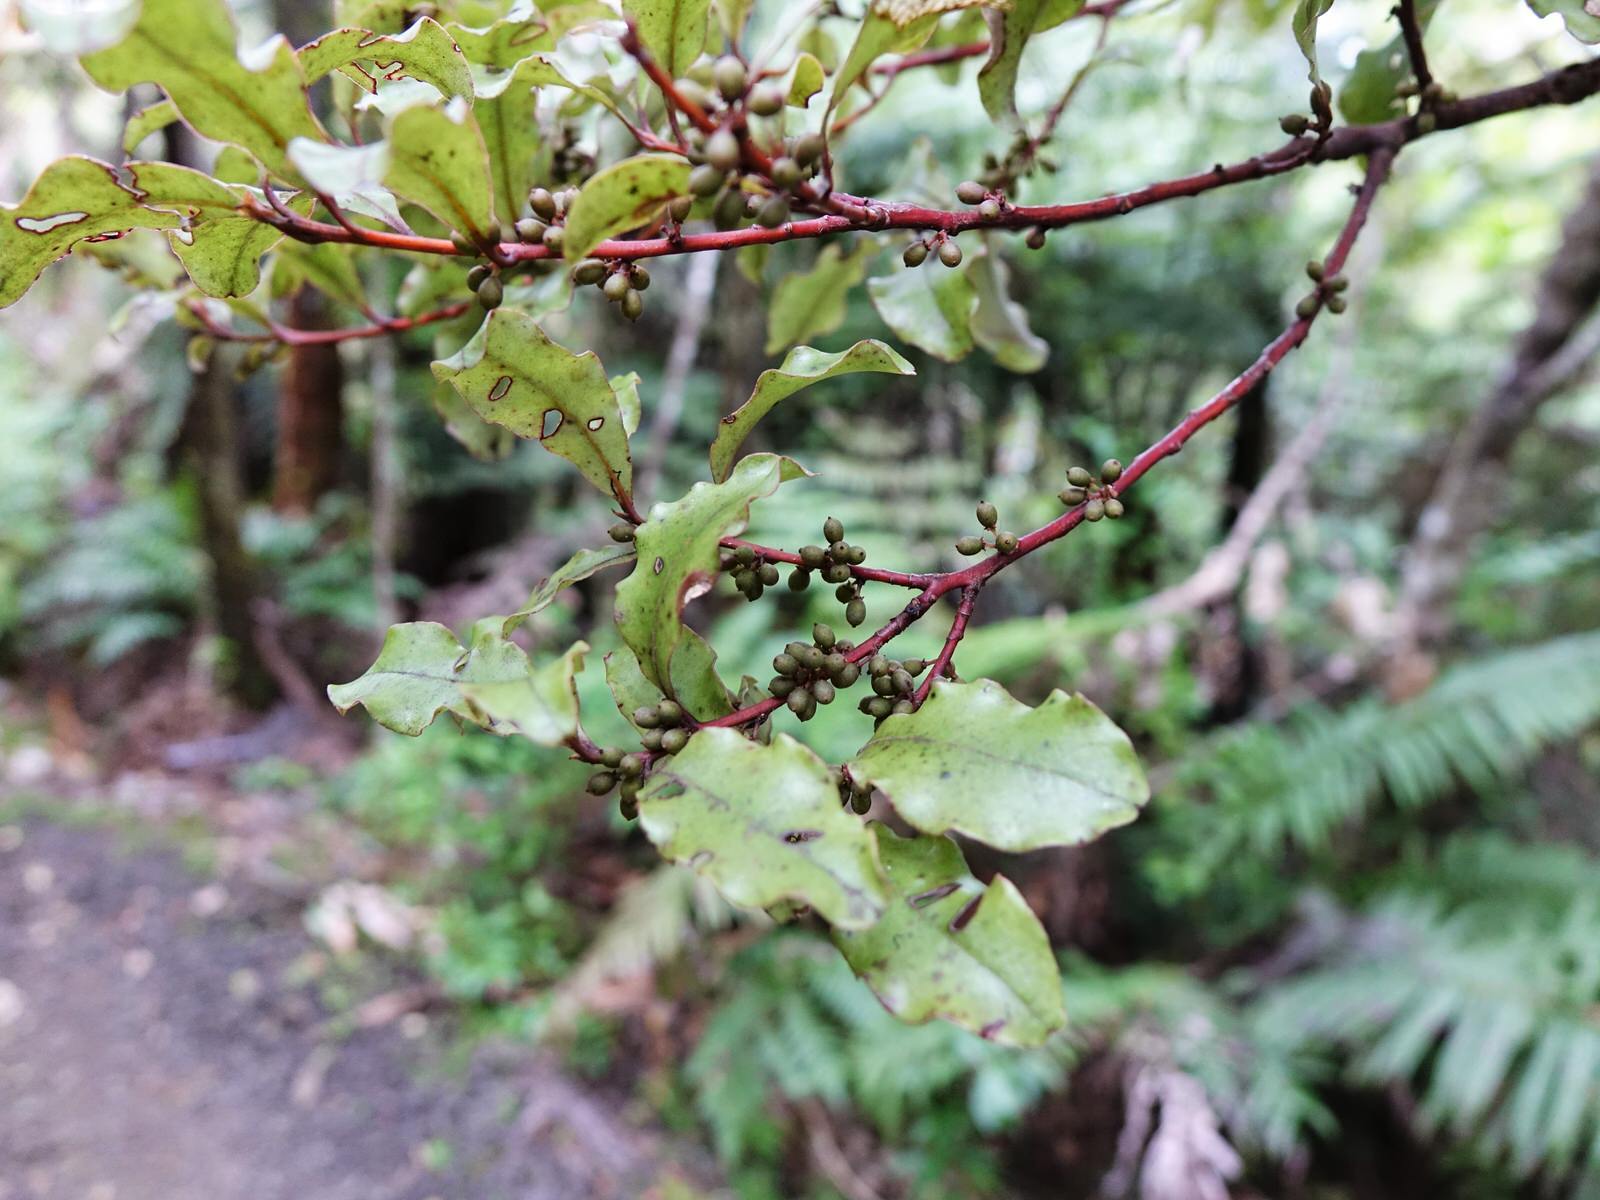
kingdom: Plantae
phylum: Tracheophyta
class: Magnoliopsida
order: Ericales
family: Primulaceae
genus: Myrsine
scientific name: Myrsine australis
